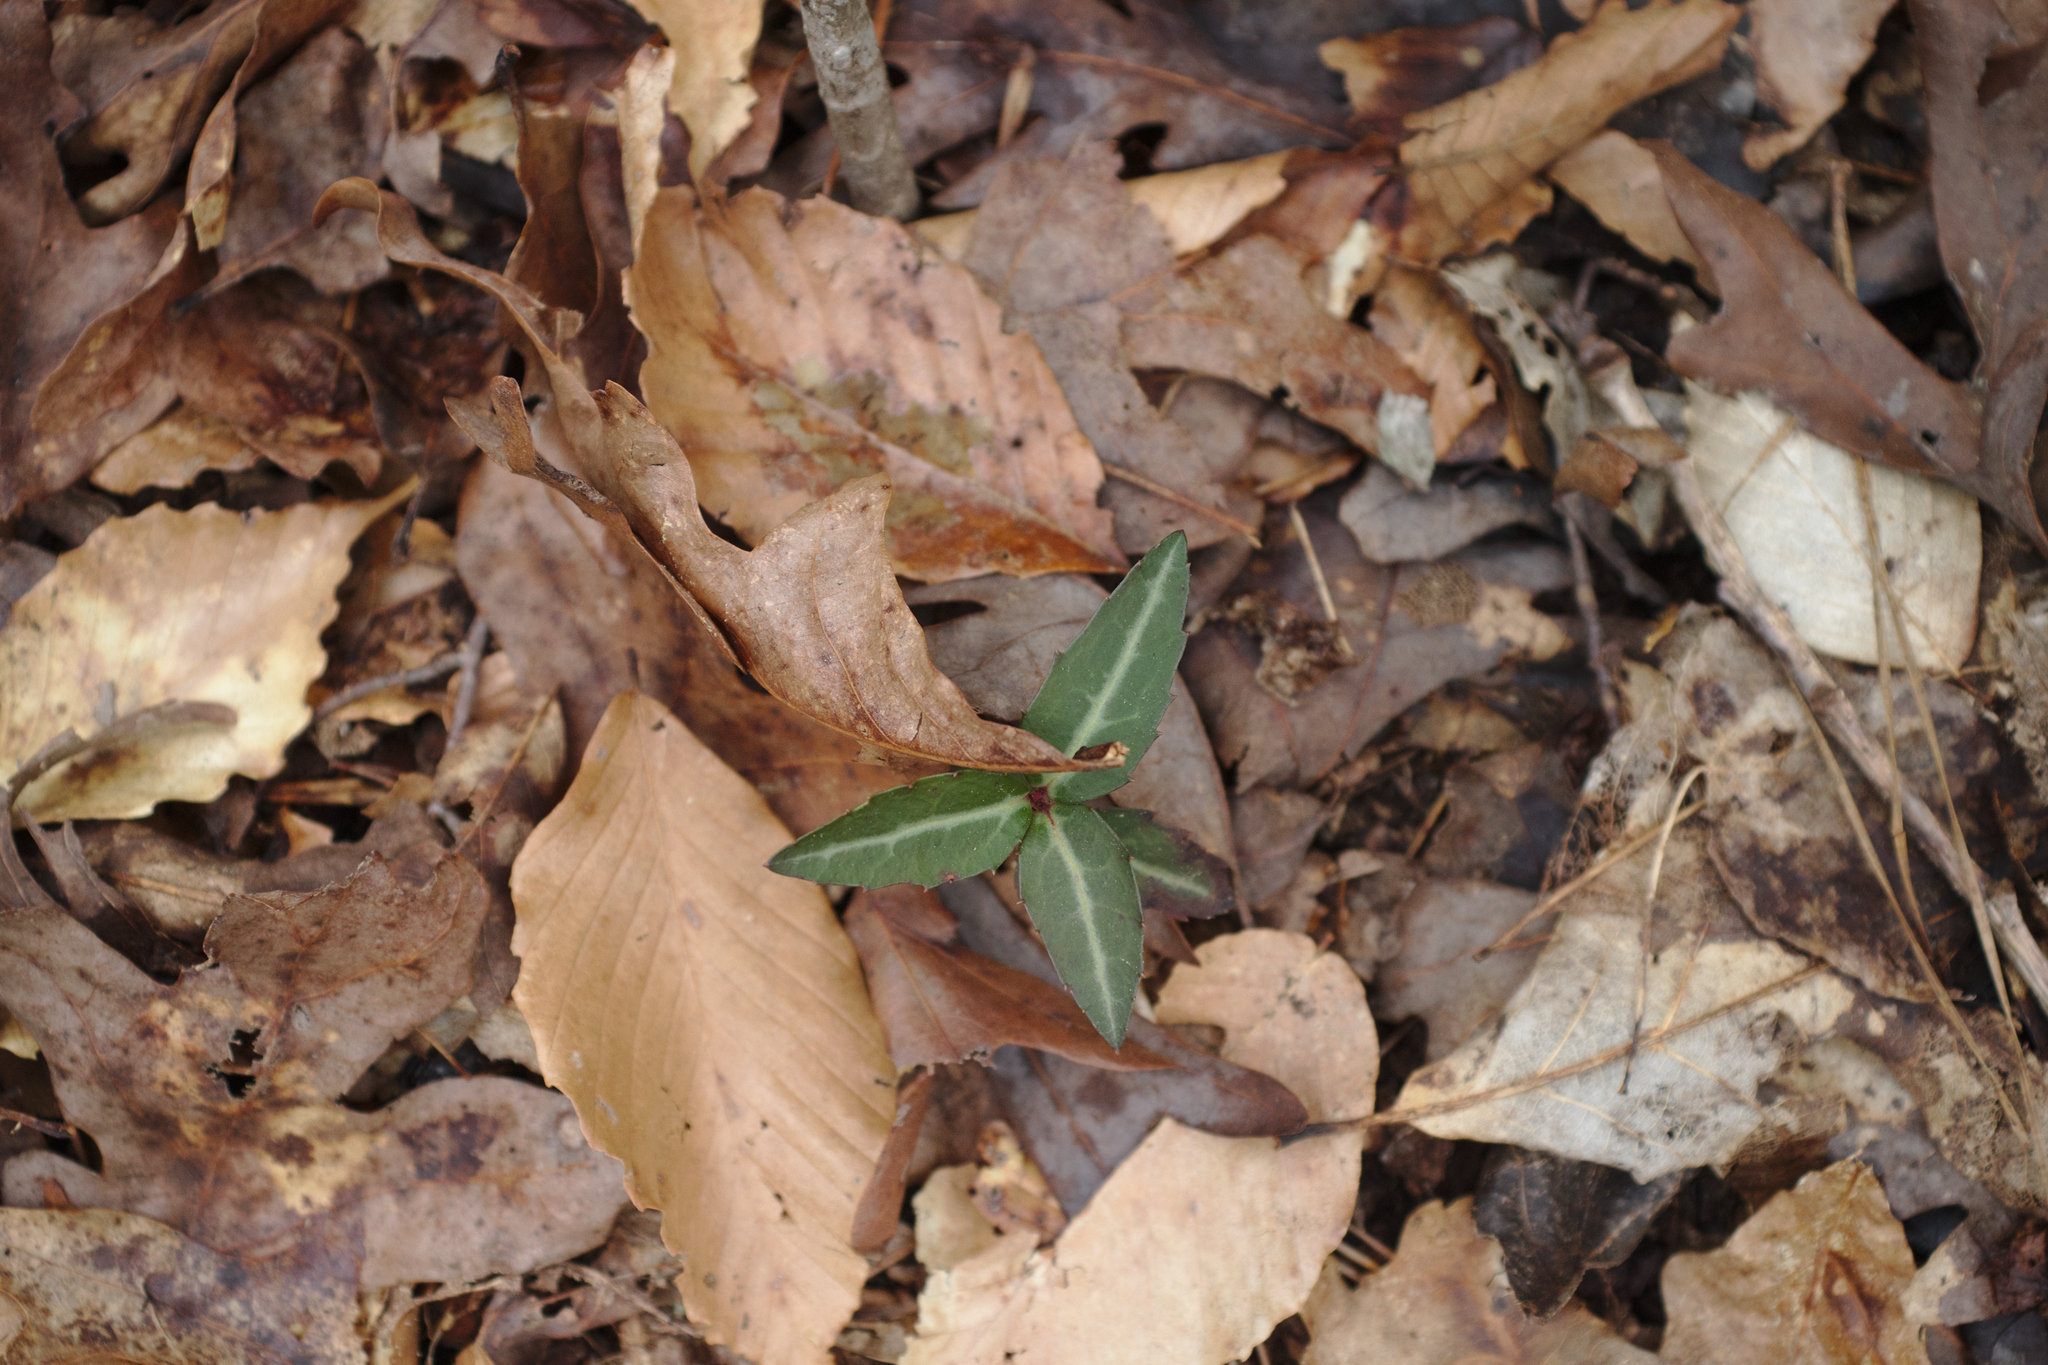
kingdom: Plantae
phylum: Tracheophyta
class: Magnoliopsida
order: Ericales
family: Ericaceae
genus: Chimaphila
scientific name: Chimaphila maculata
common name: Spotted pipsissewa
